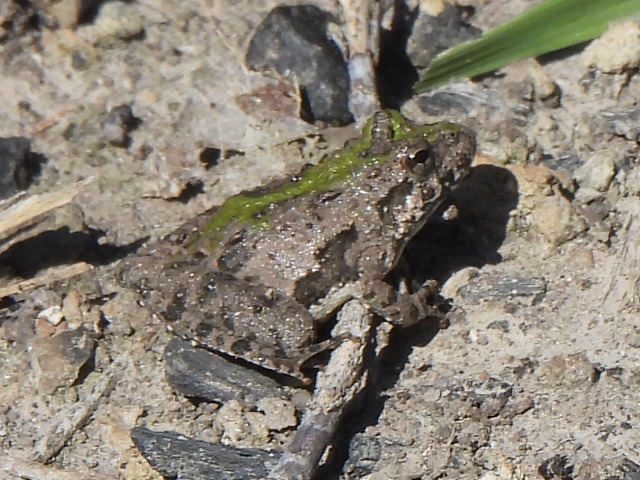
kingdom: Animalia
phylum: Chordata
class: Amphibia
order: Anura
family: Hylidae
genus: Acris
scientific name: Acris blanchardi
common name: Blanchard's cricket frog
